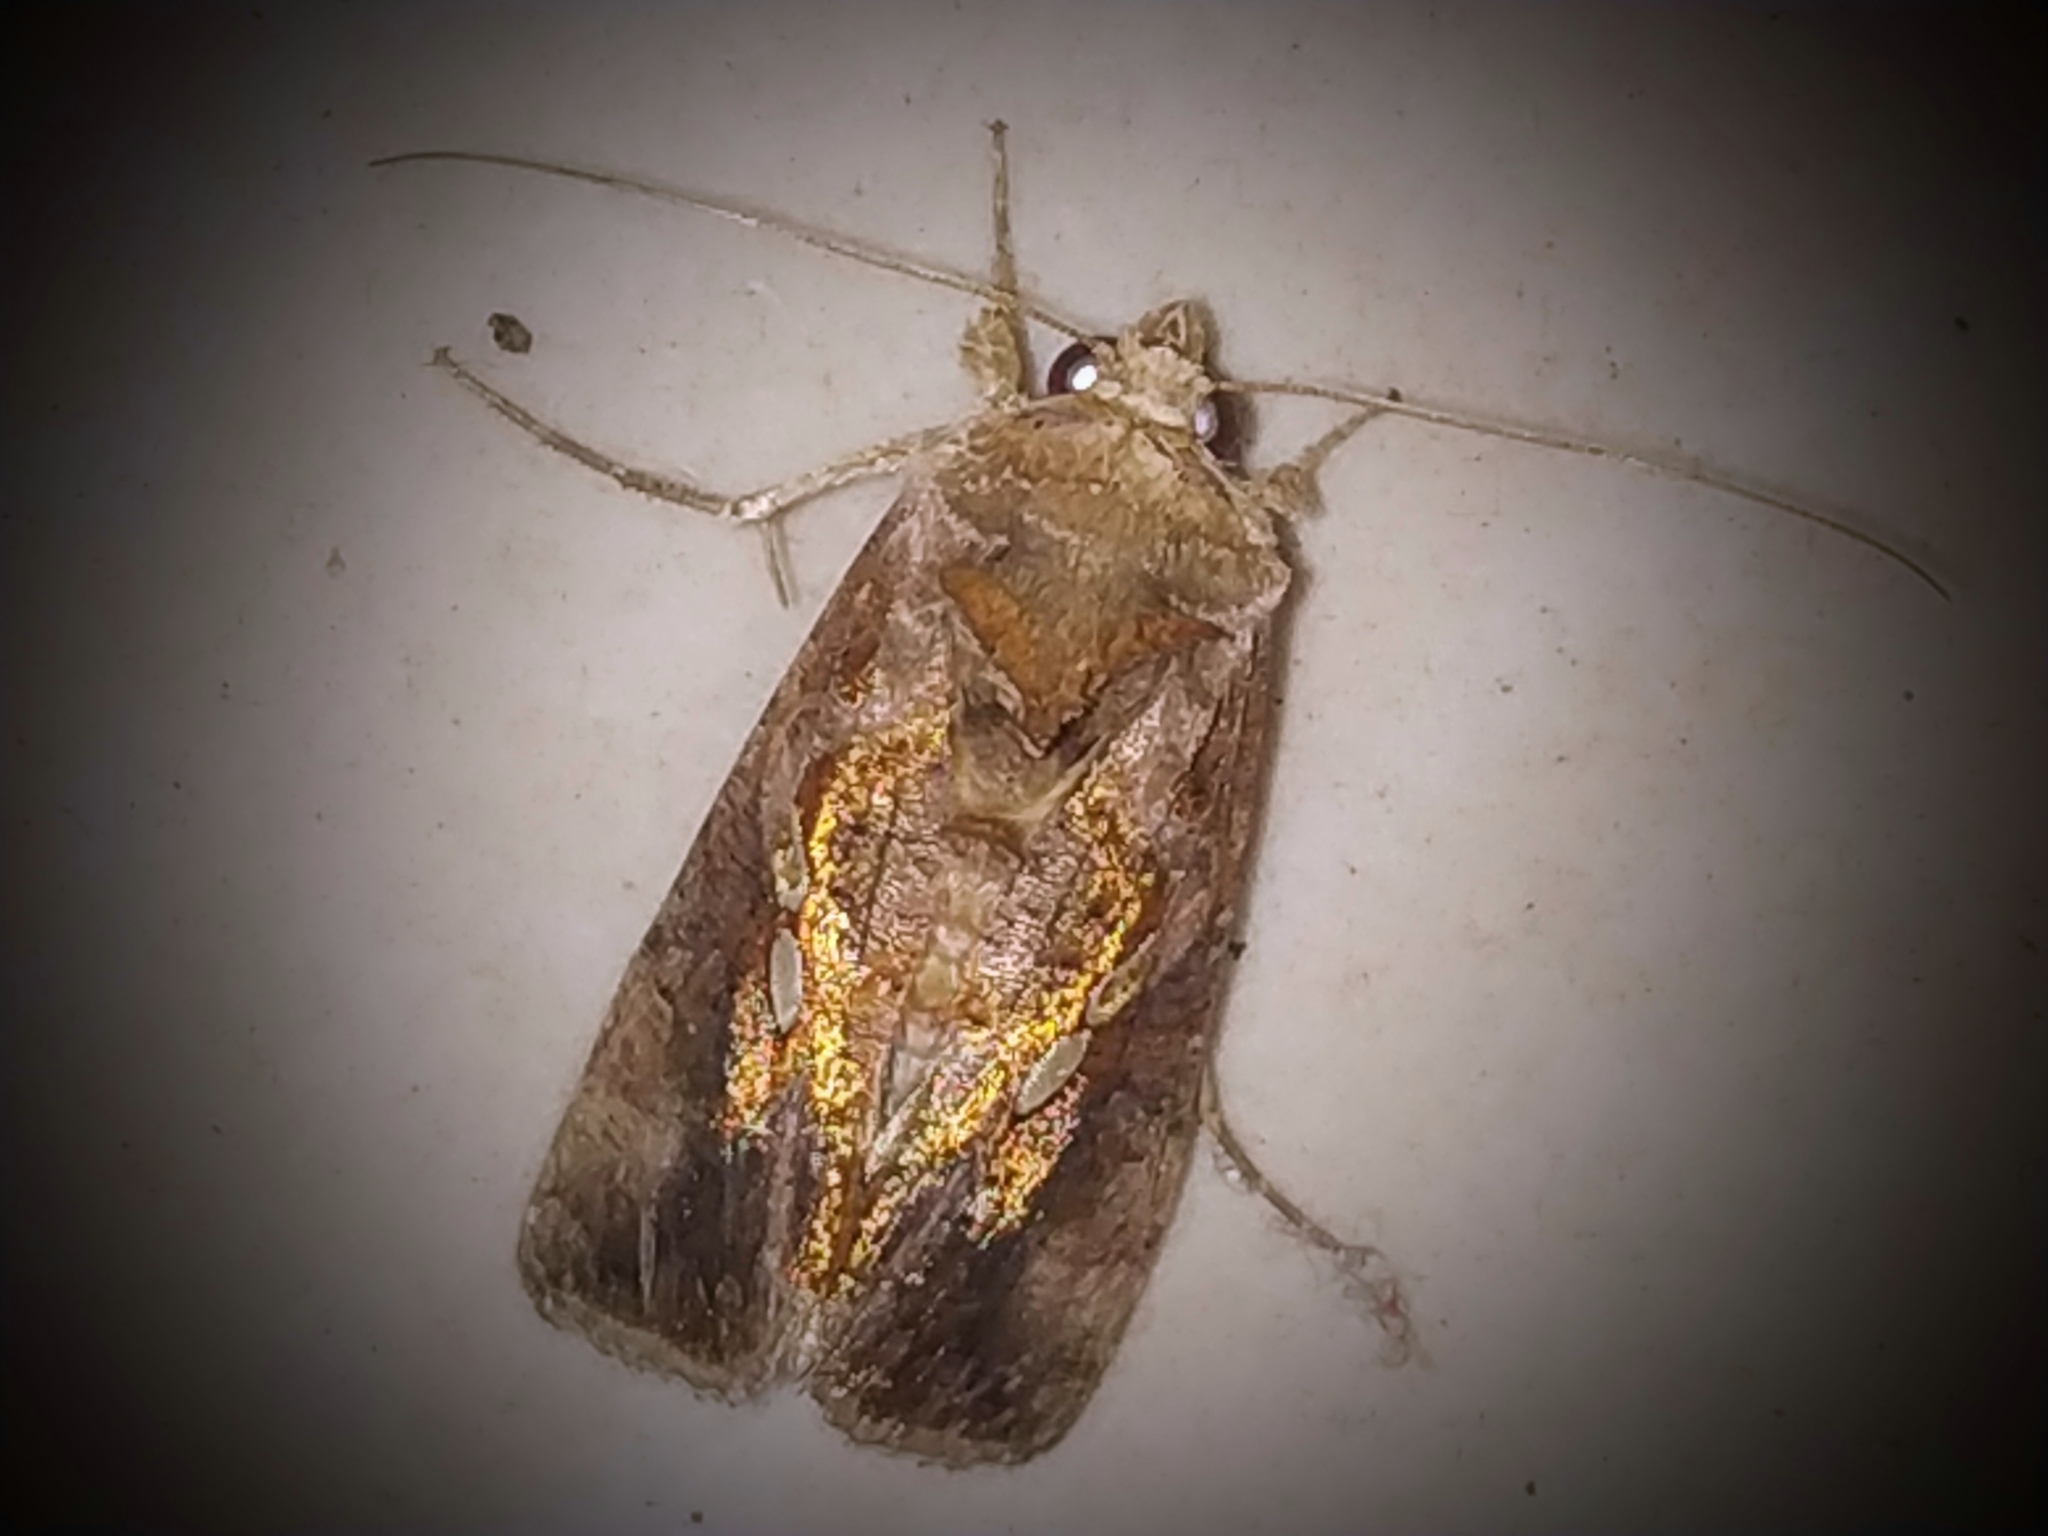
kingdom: Animalia
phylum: Arthropoda
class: Insecta
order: Lepidoptera
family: Noctuidae
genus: Chrysodeixis
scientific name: Chrysodeixis eriosoma
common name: Green garden looper
